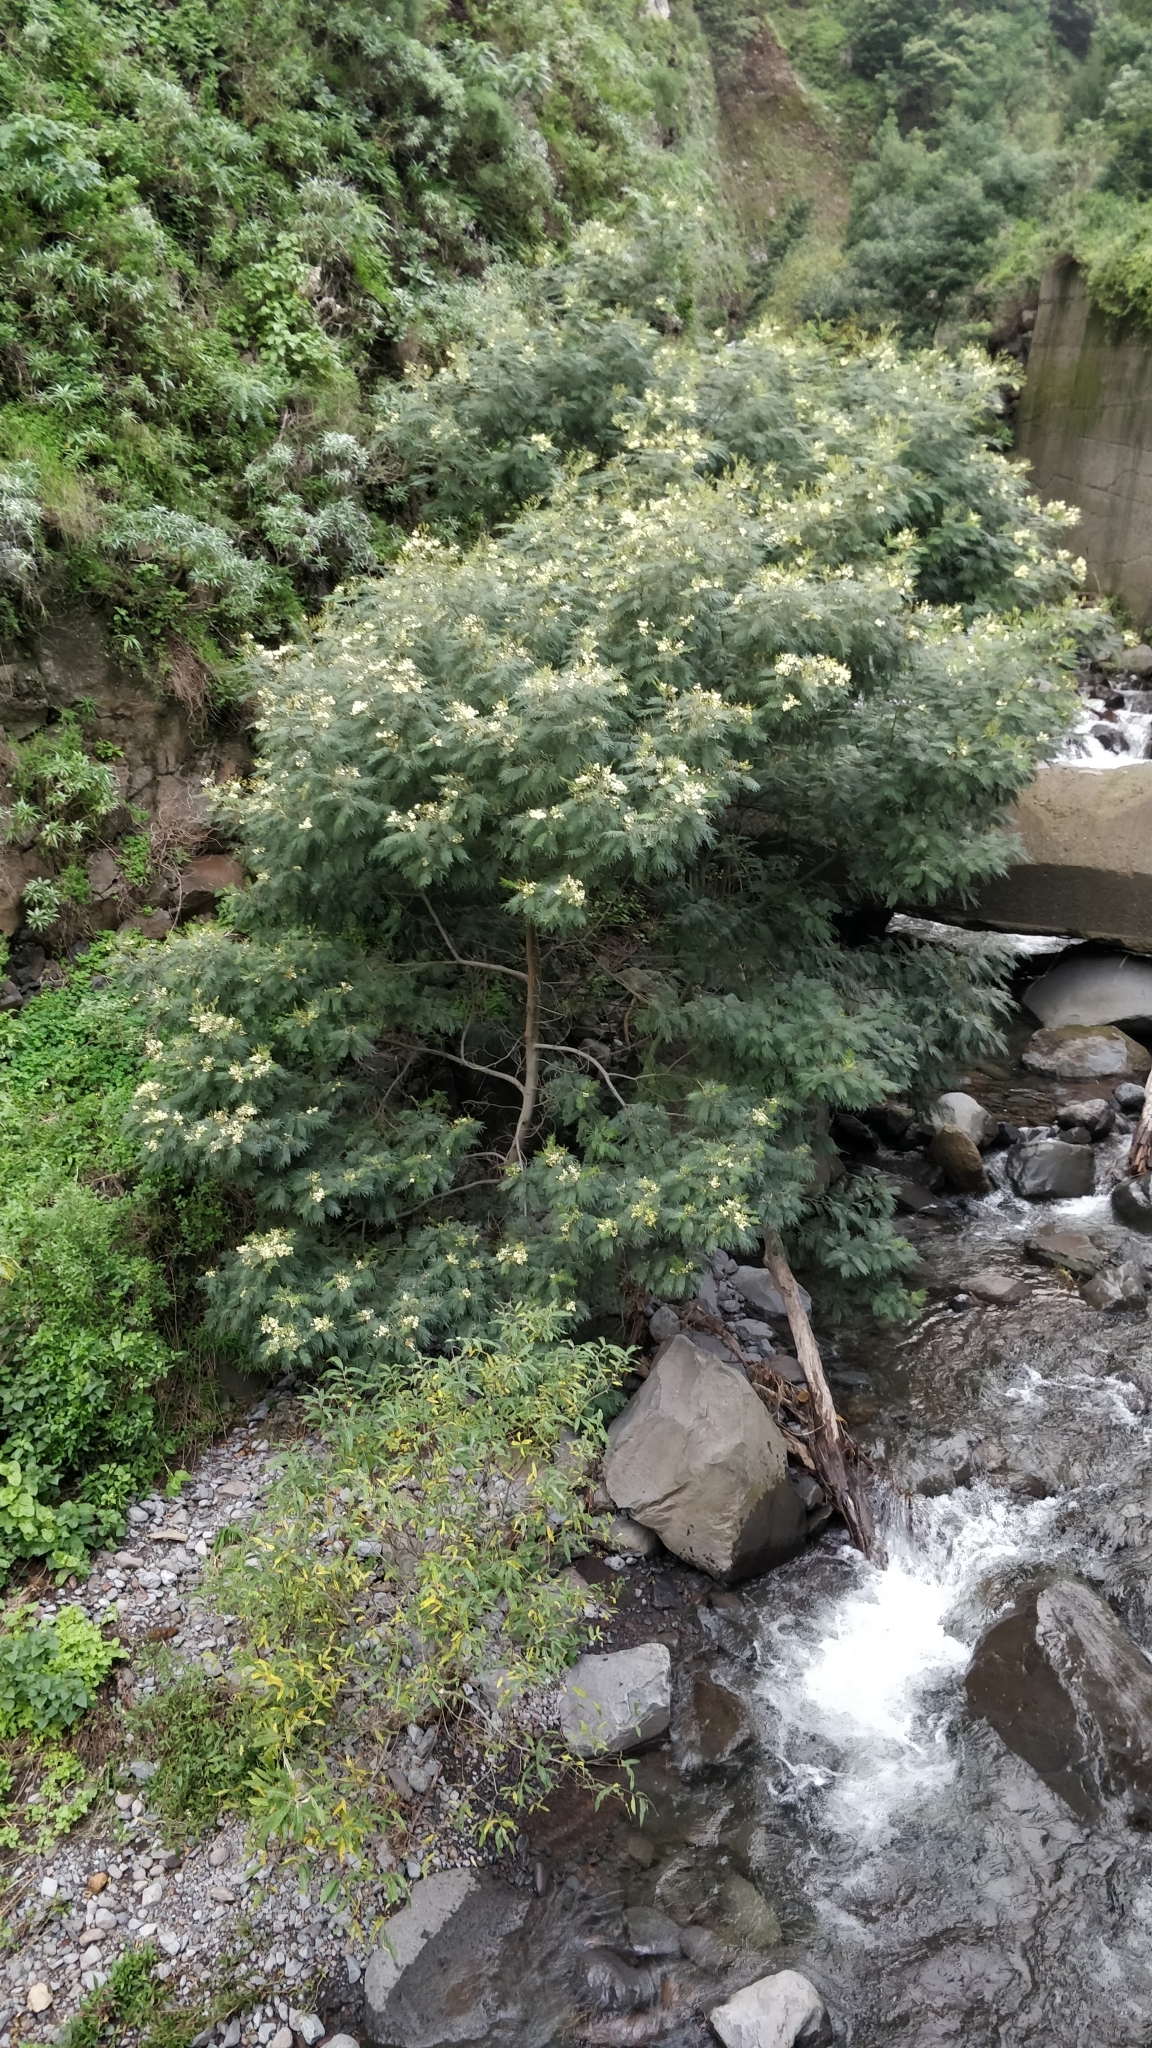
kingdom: Plantae
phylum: Tracheophyta
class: Magnoliopsida
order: Fabales
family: Fabaceae
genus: Acacia
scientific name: Acacia mearnsii
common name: Black wattle
